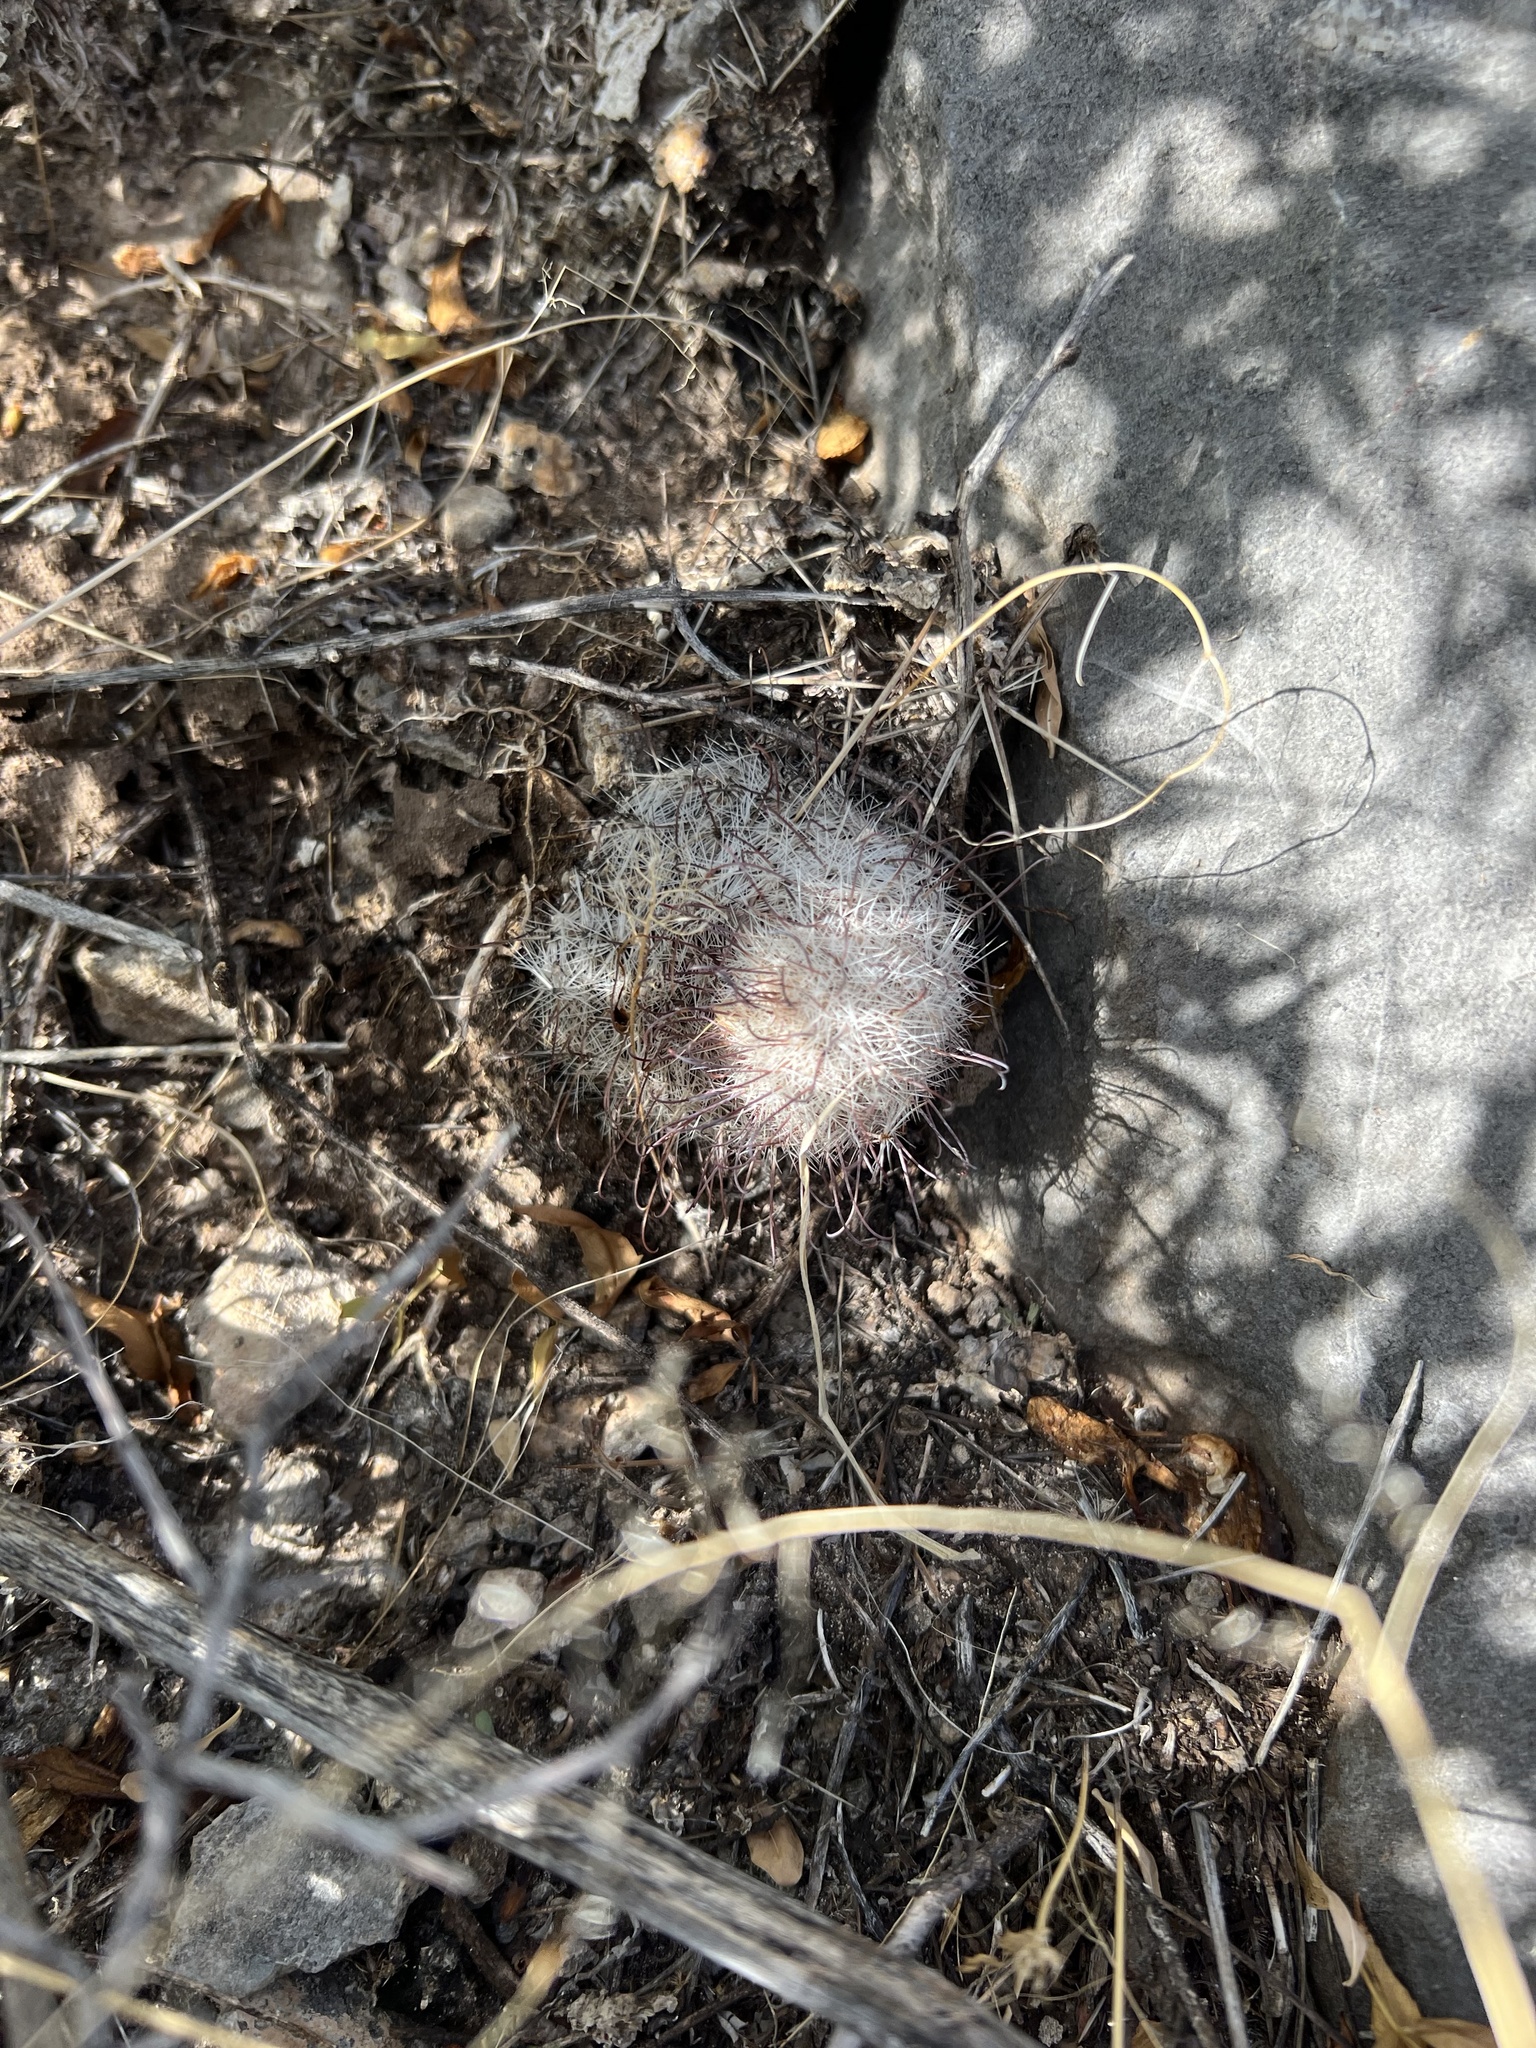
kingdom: Plantae
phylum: Tracheophyta
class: Magnoliopsida
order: Caryophyllales
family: Cactaceae
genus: Cochemiea
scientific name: Cochemiea grahamii
